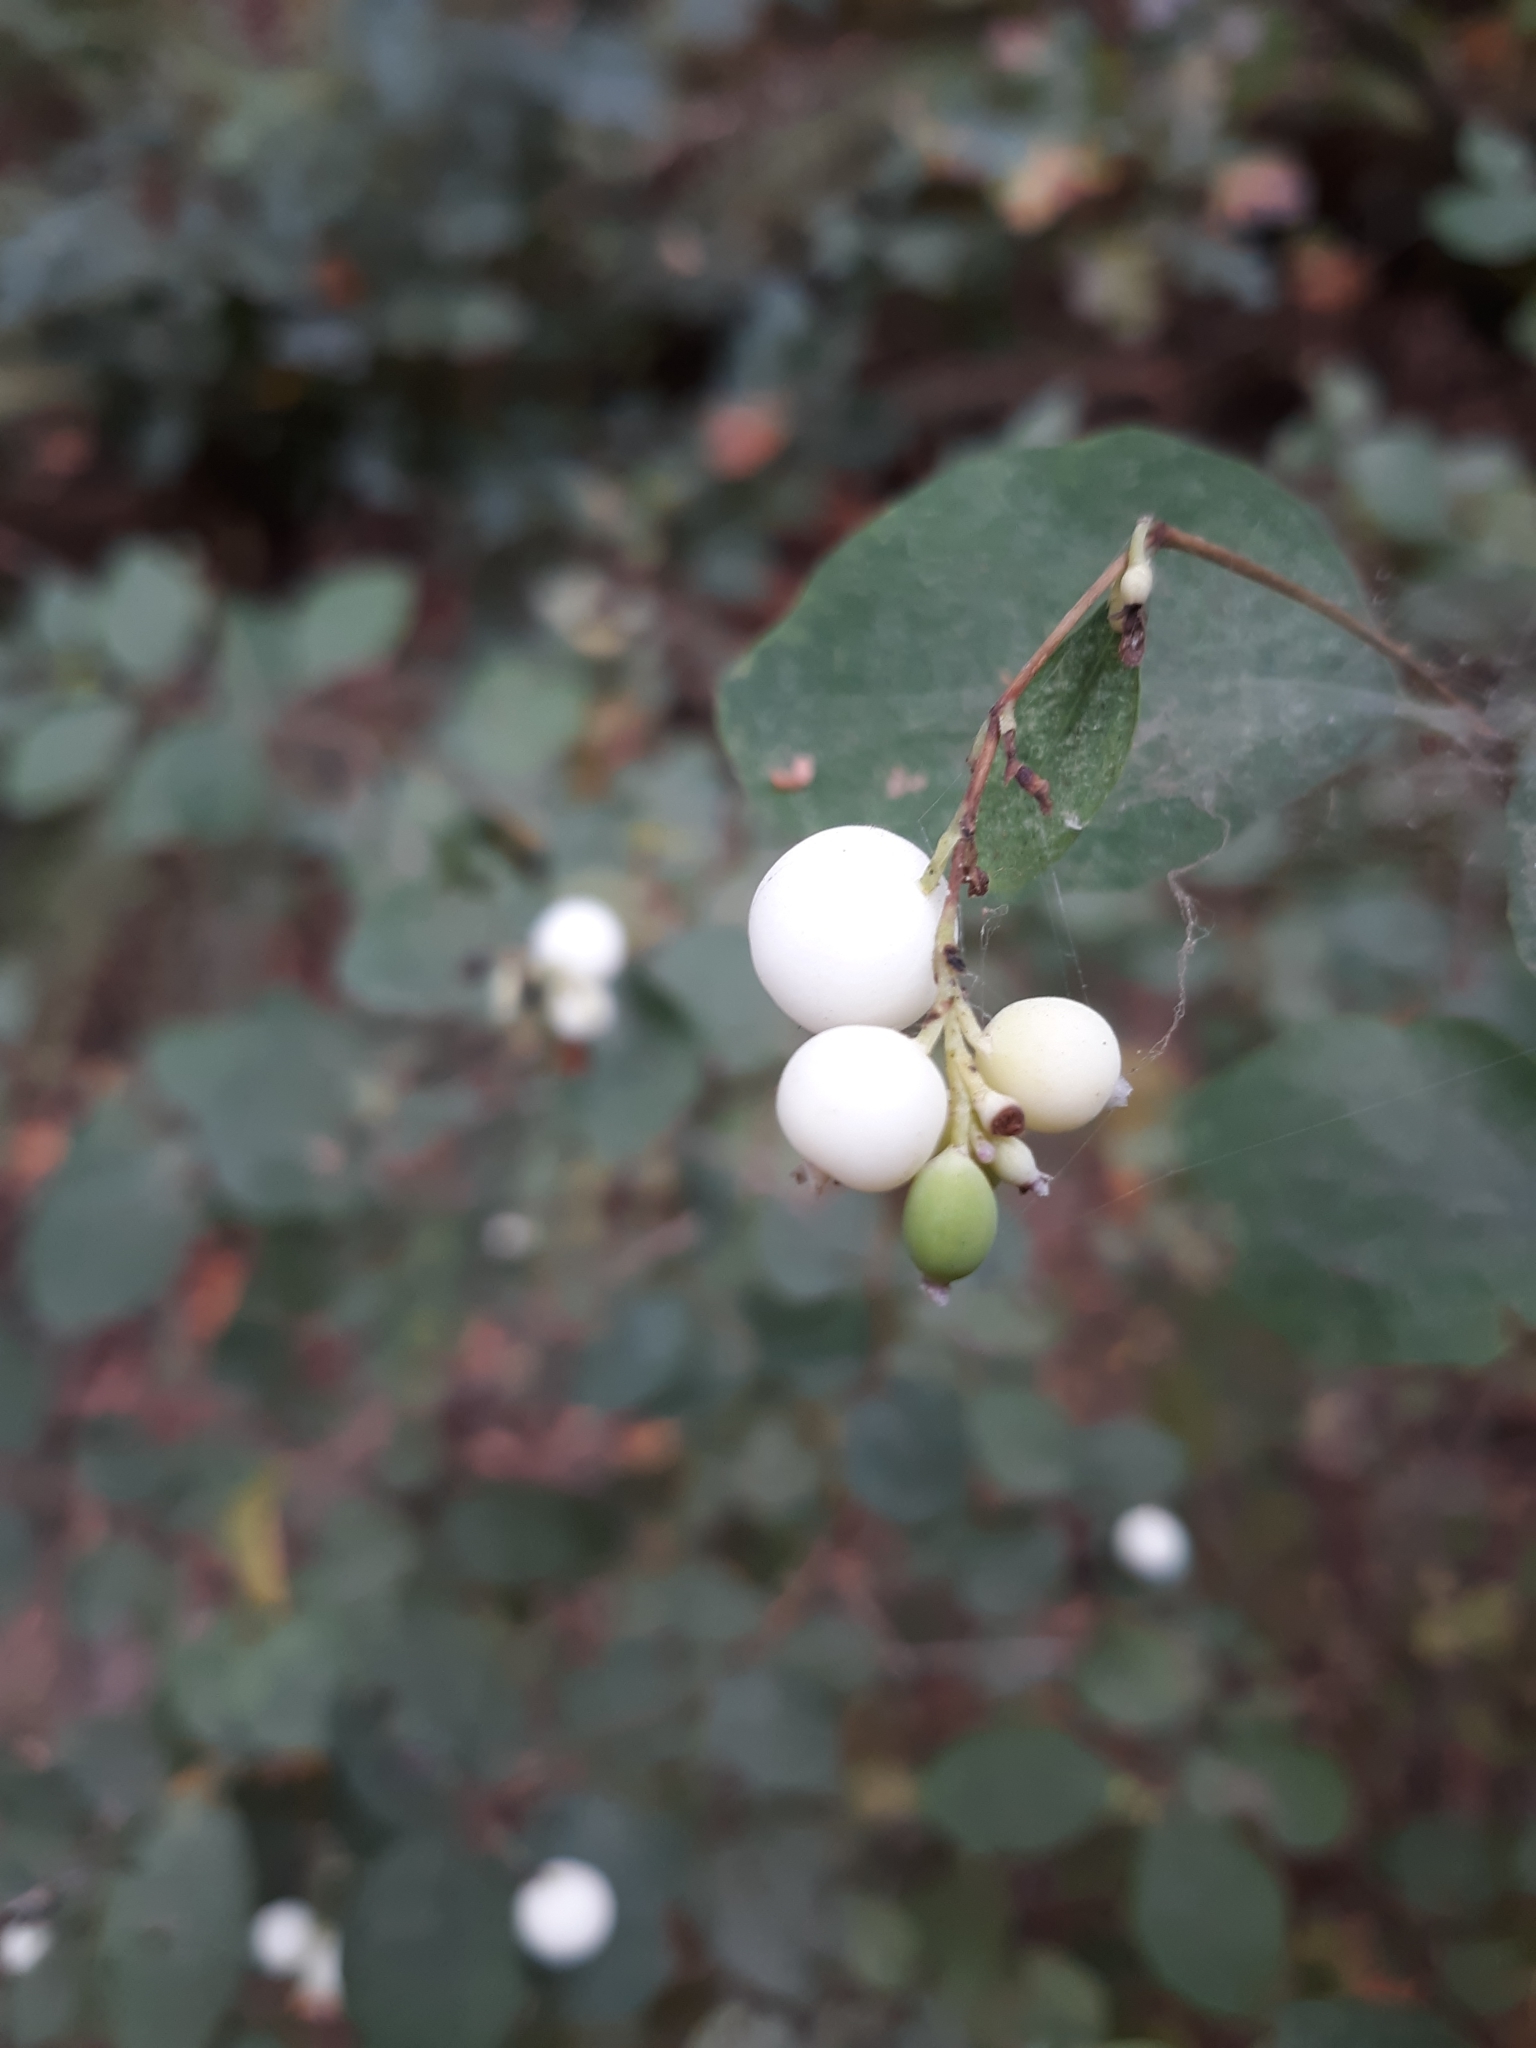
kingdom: Plantae
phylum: Tracheophyta
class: Magnoliopsida
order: Dipsacales
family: Caprifoliaceae
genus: Symphoricarpos
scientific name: Symphoricarpos albus
